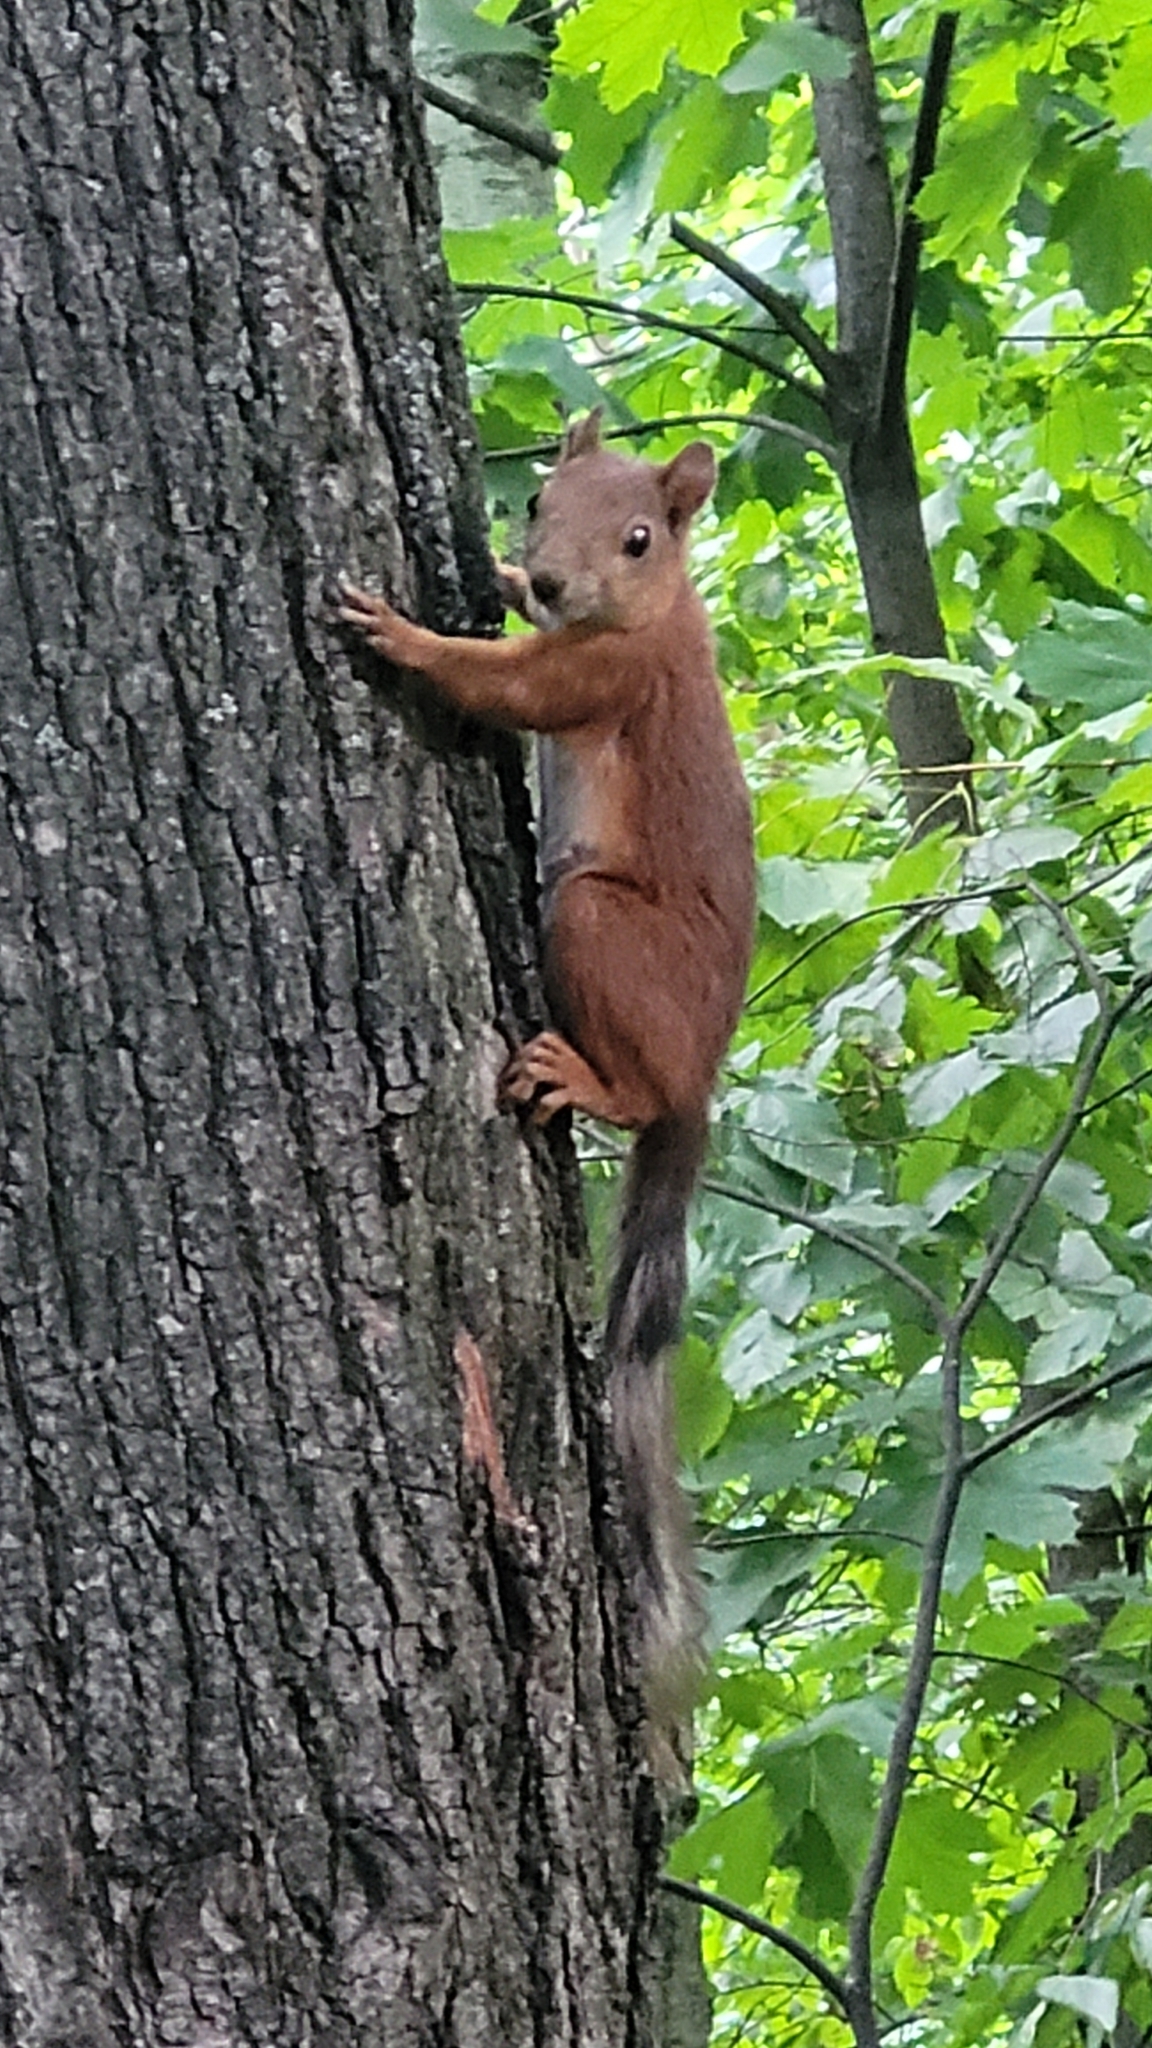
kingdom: Animalia
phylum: Chordata
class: Mammalia
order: Rodentia
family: Sciuridae
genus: Sciurus
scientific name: Sciurus vulgaris
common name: Eurasian red squirrel
